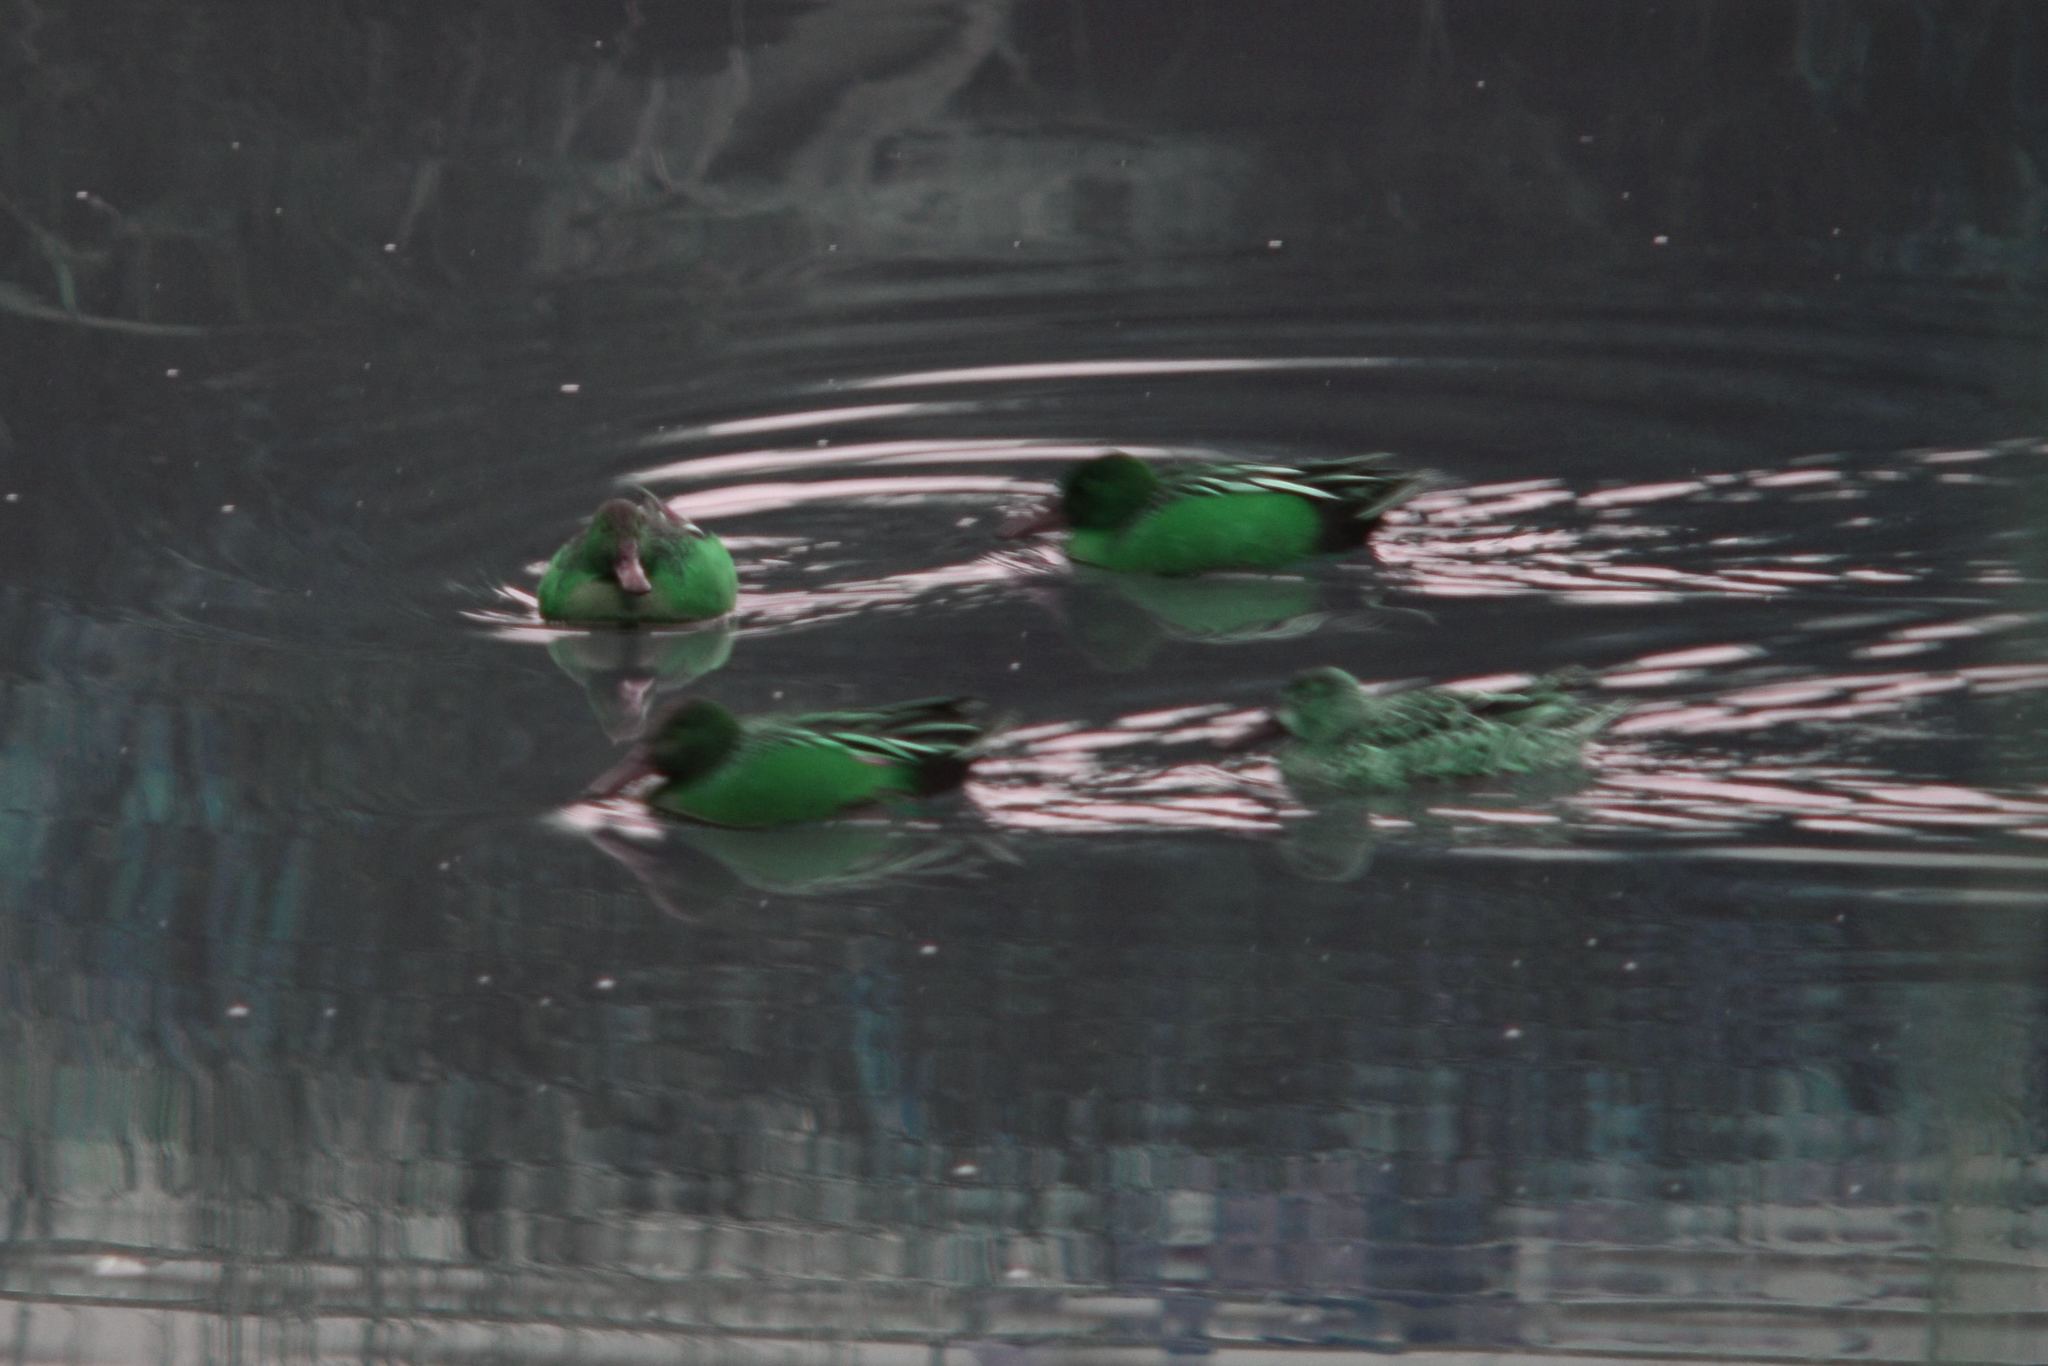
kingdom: Animalia
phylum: Chordata
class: Aves
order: Anseriformes
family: Anatidae
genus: Spatula
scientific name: Spatula cyanoptera
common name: Cinnamon teal
